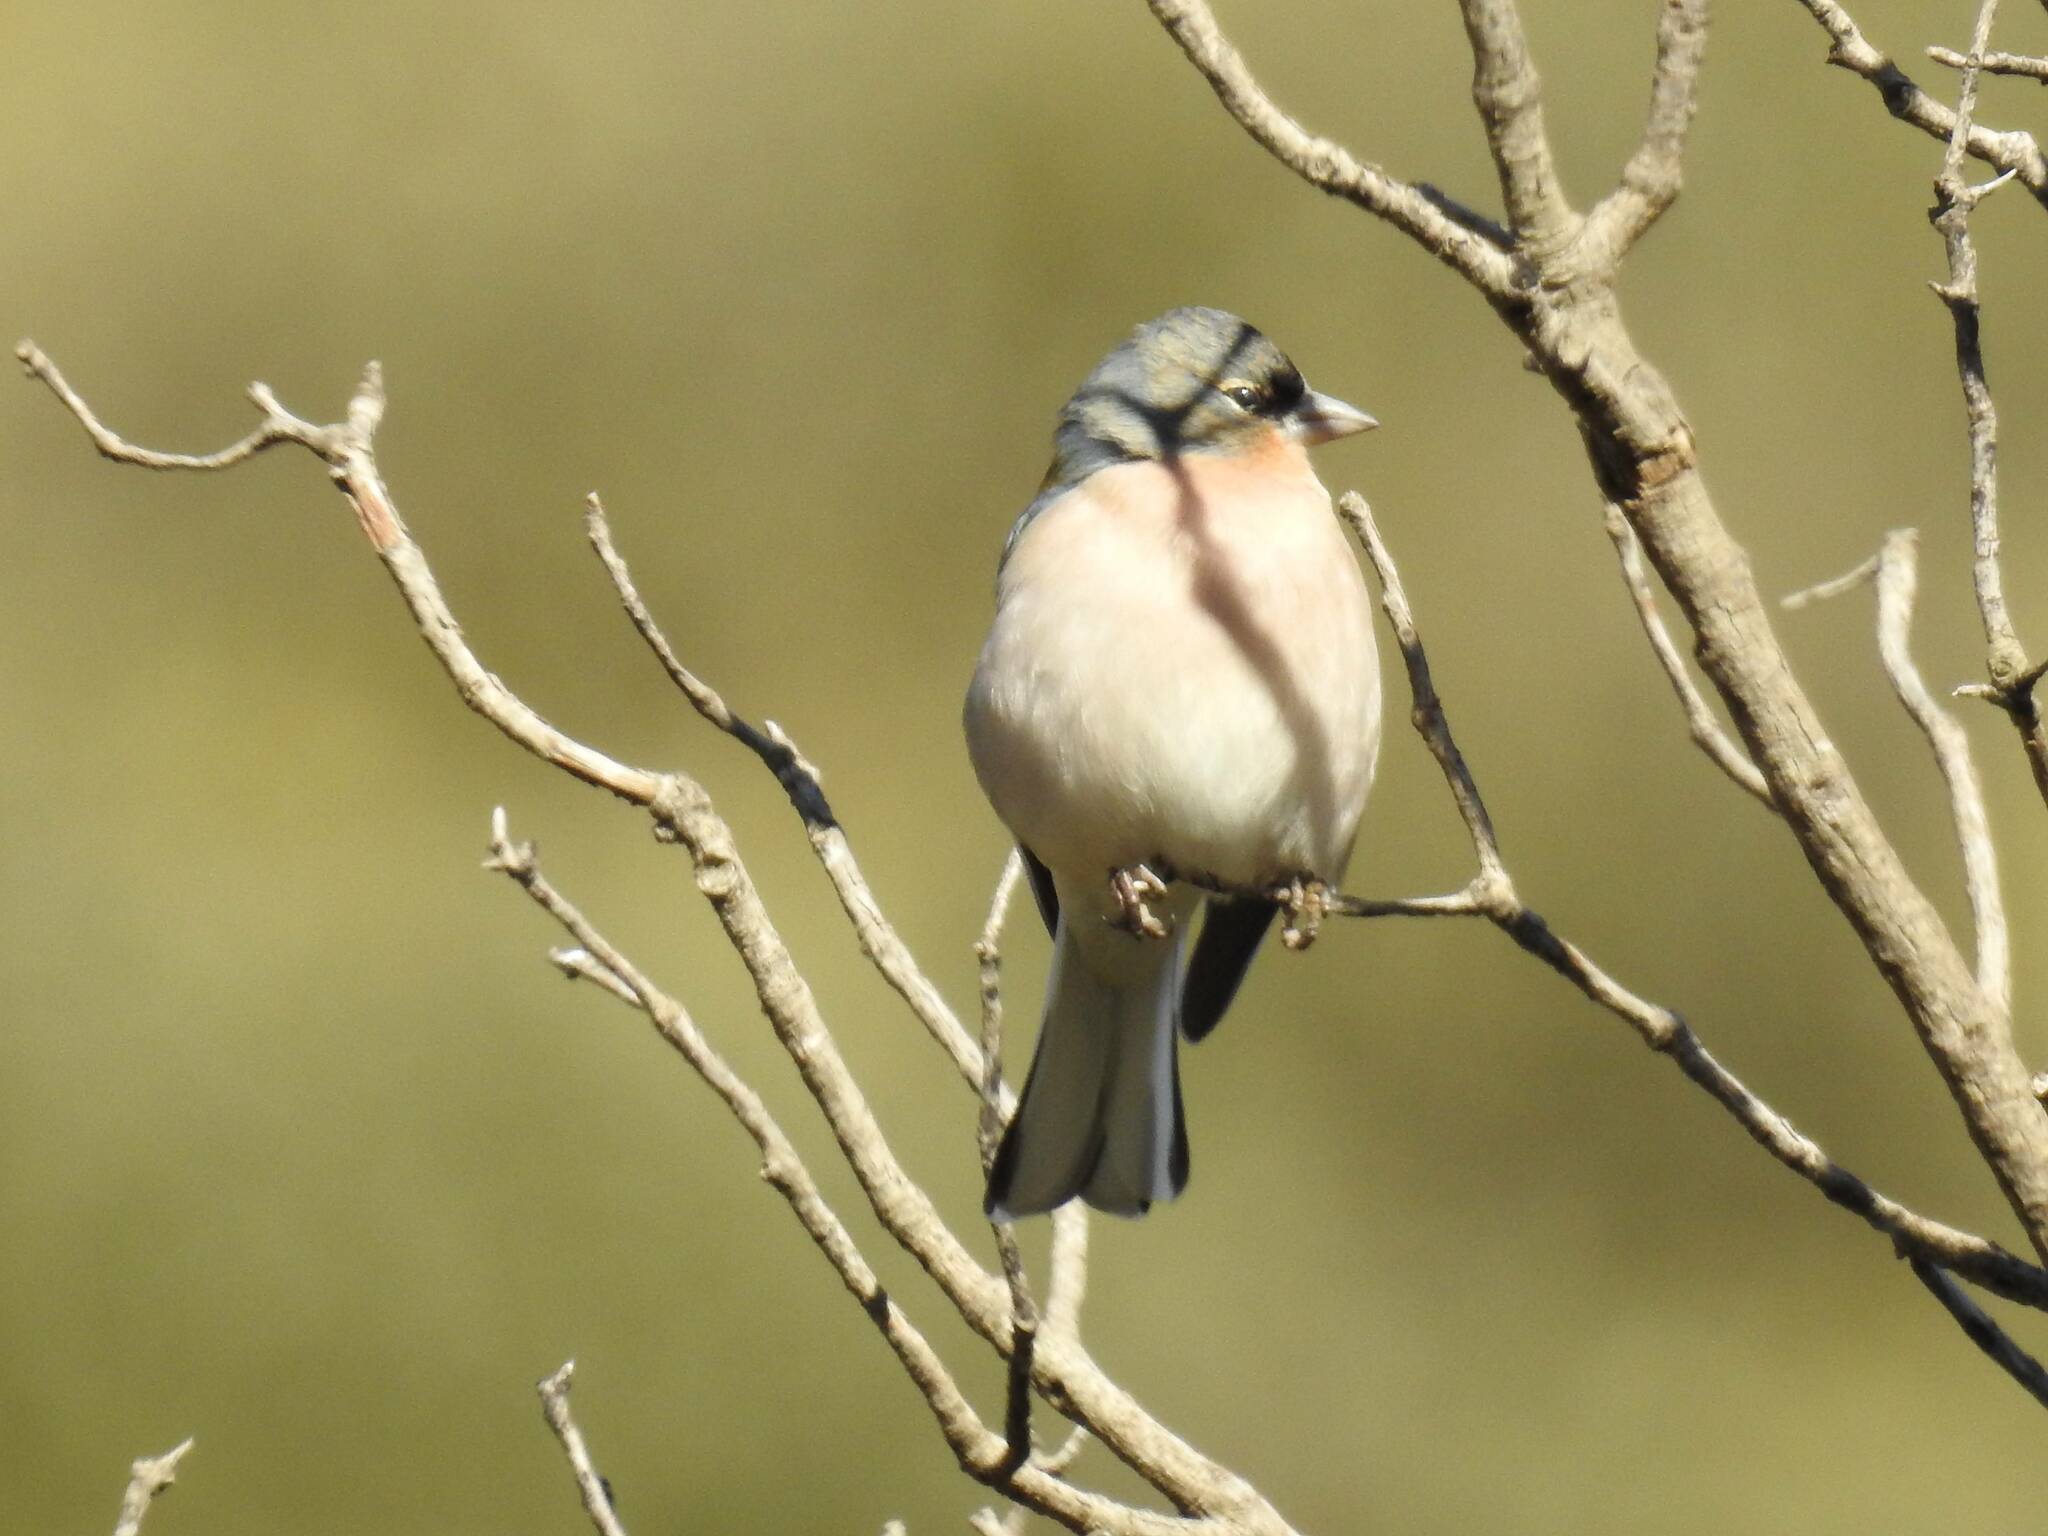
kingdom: Animalia
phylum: Chordata
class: Aves
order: Passeriformes
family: Fringillidae
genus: Fringilla
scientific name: Fringilla spodiogenys
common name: African chaffinch
